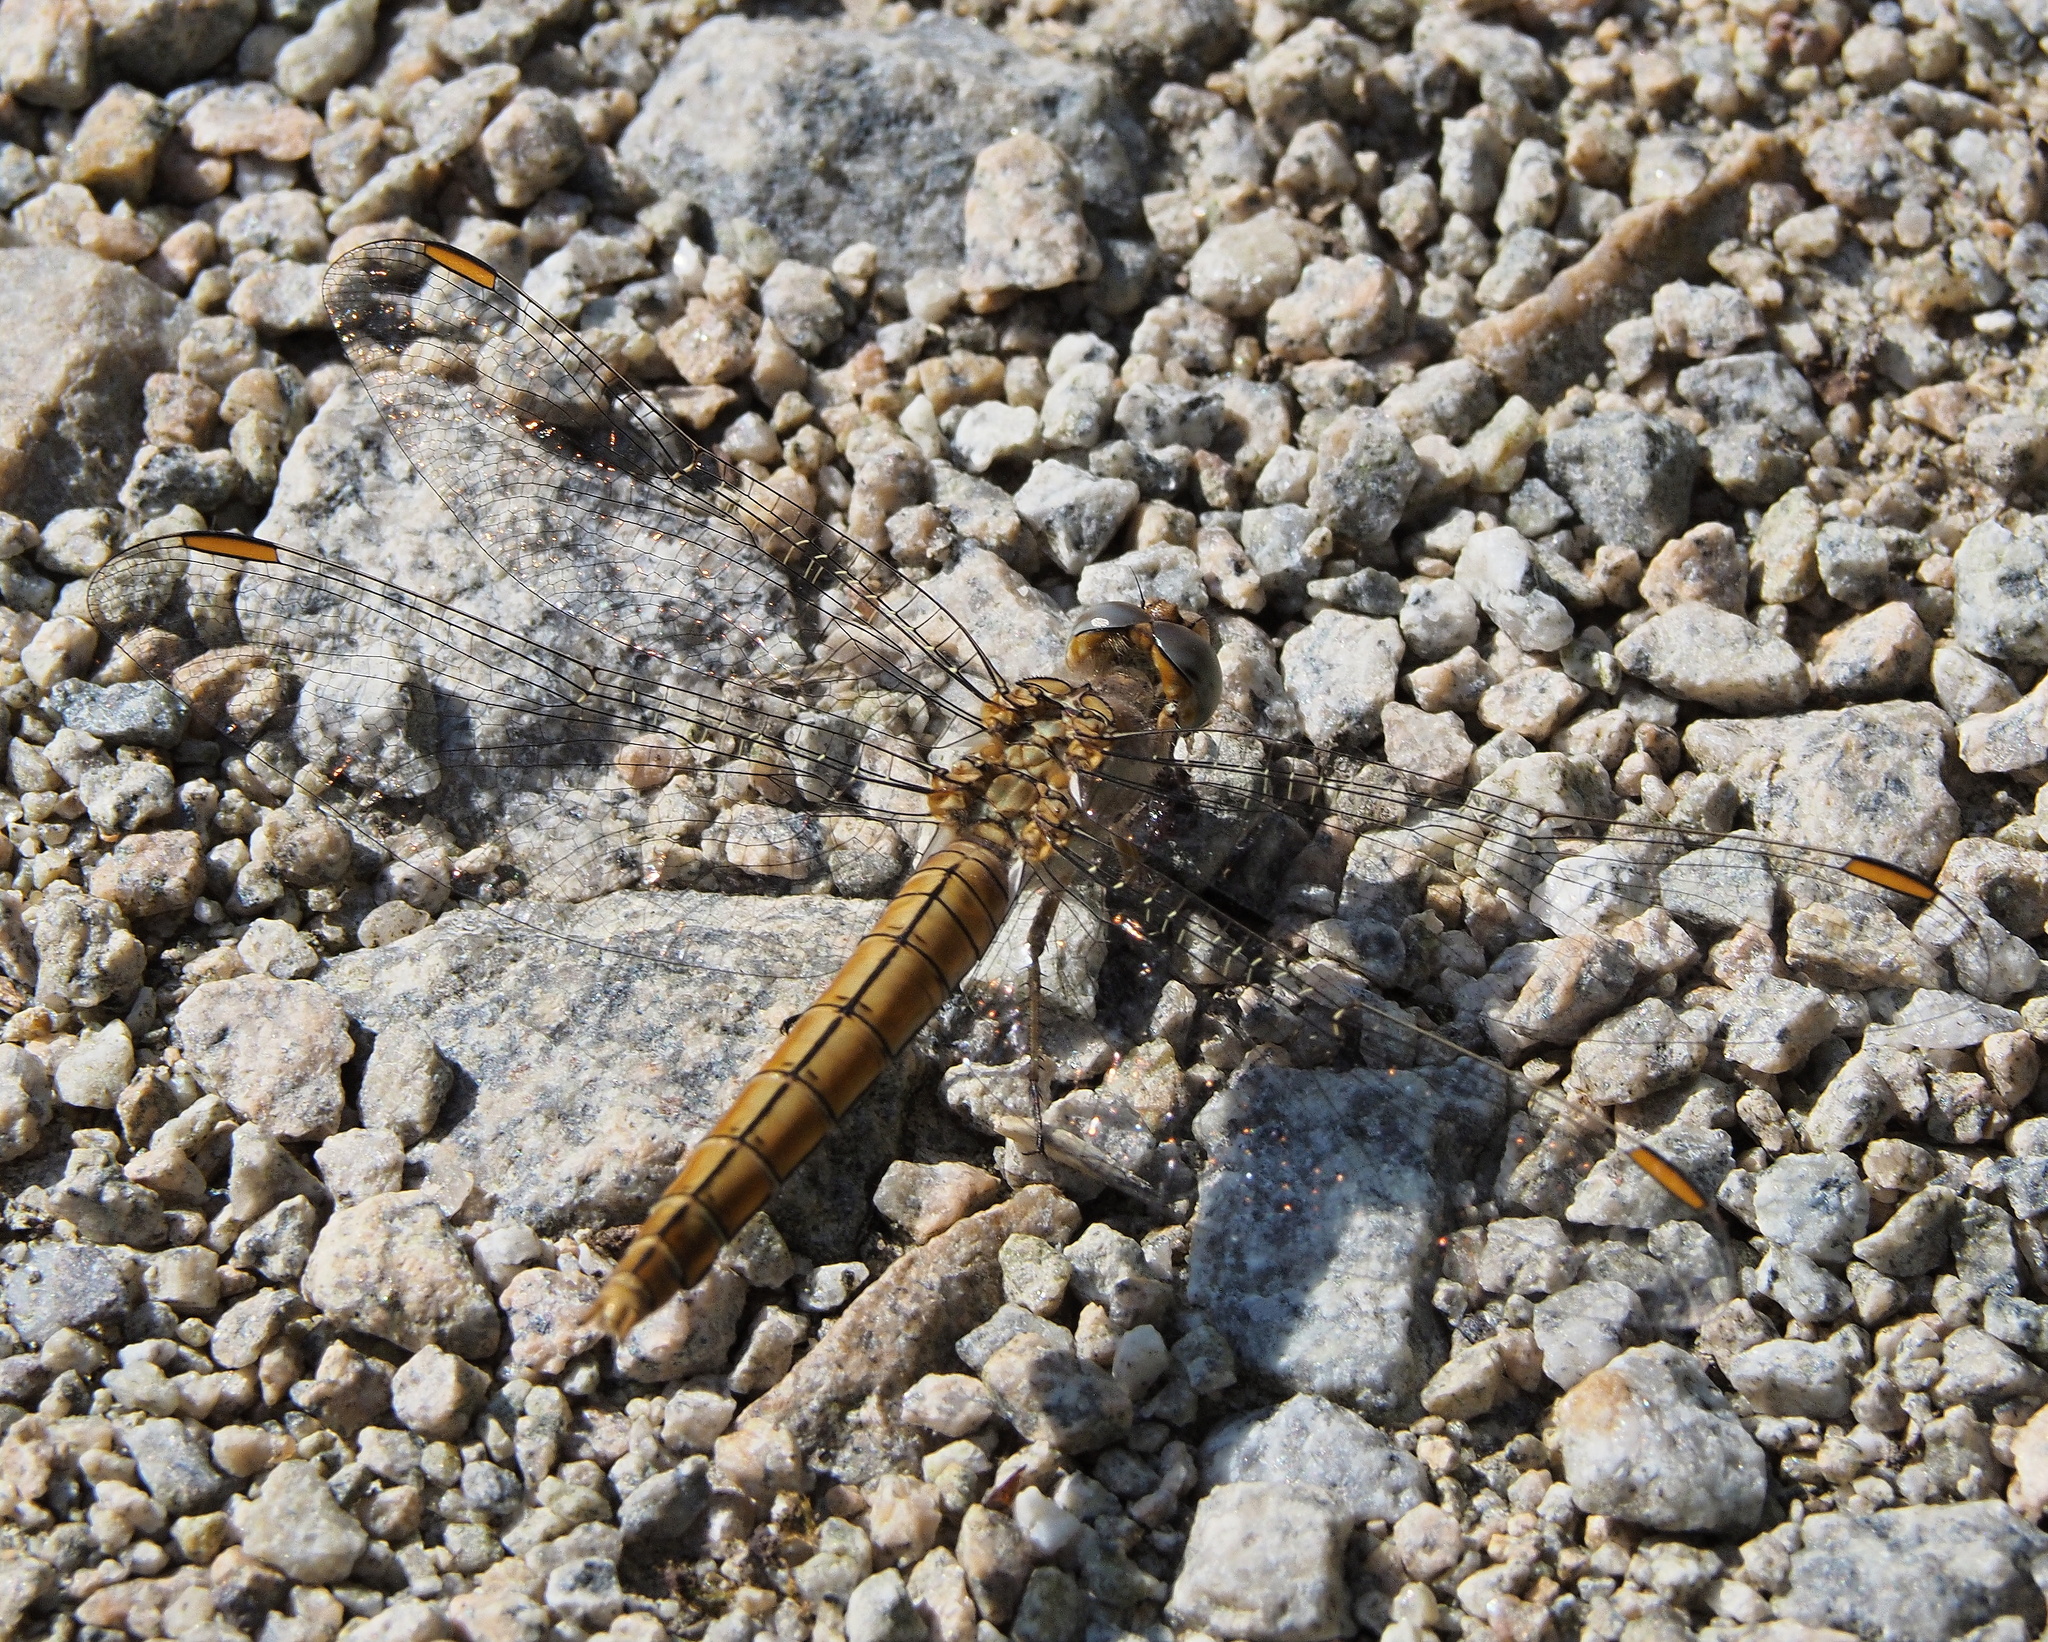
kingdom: Animalia
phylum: Arthropoda
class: Insecta
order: Odonata
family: Libellulidae
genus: Orthetrum
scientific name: Orthetrum brunneum
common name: Southern skimmer
